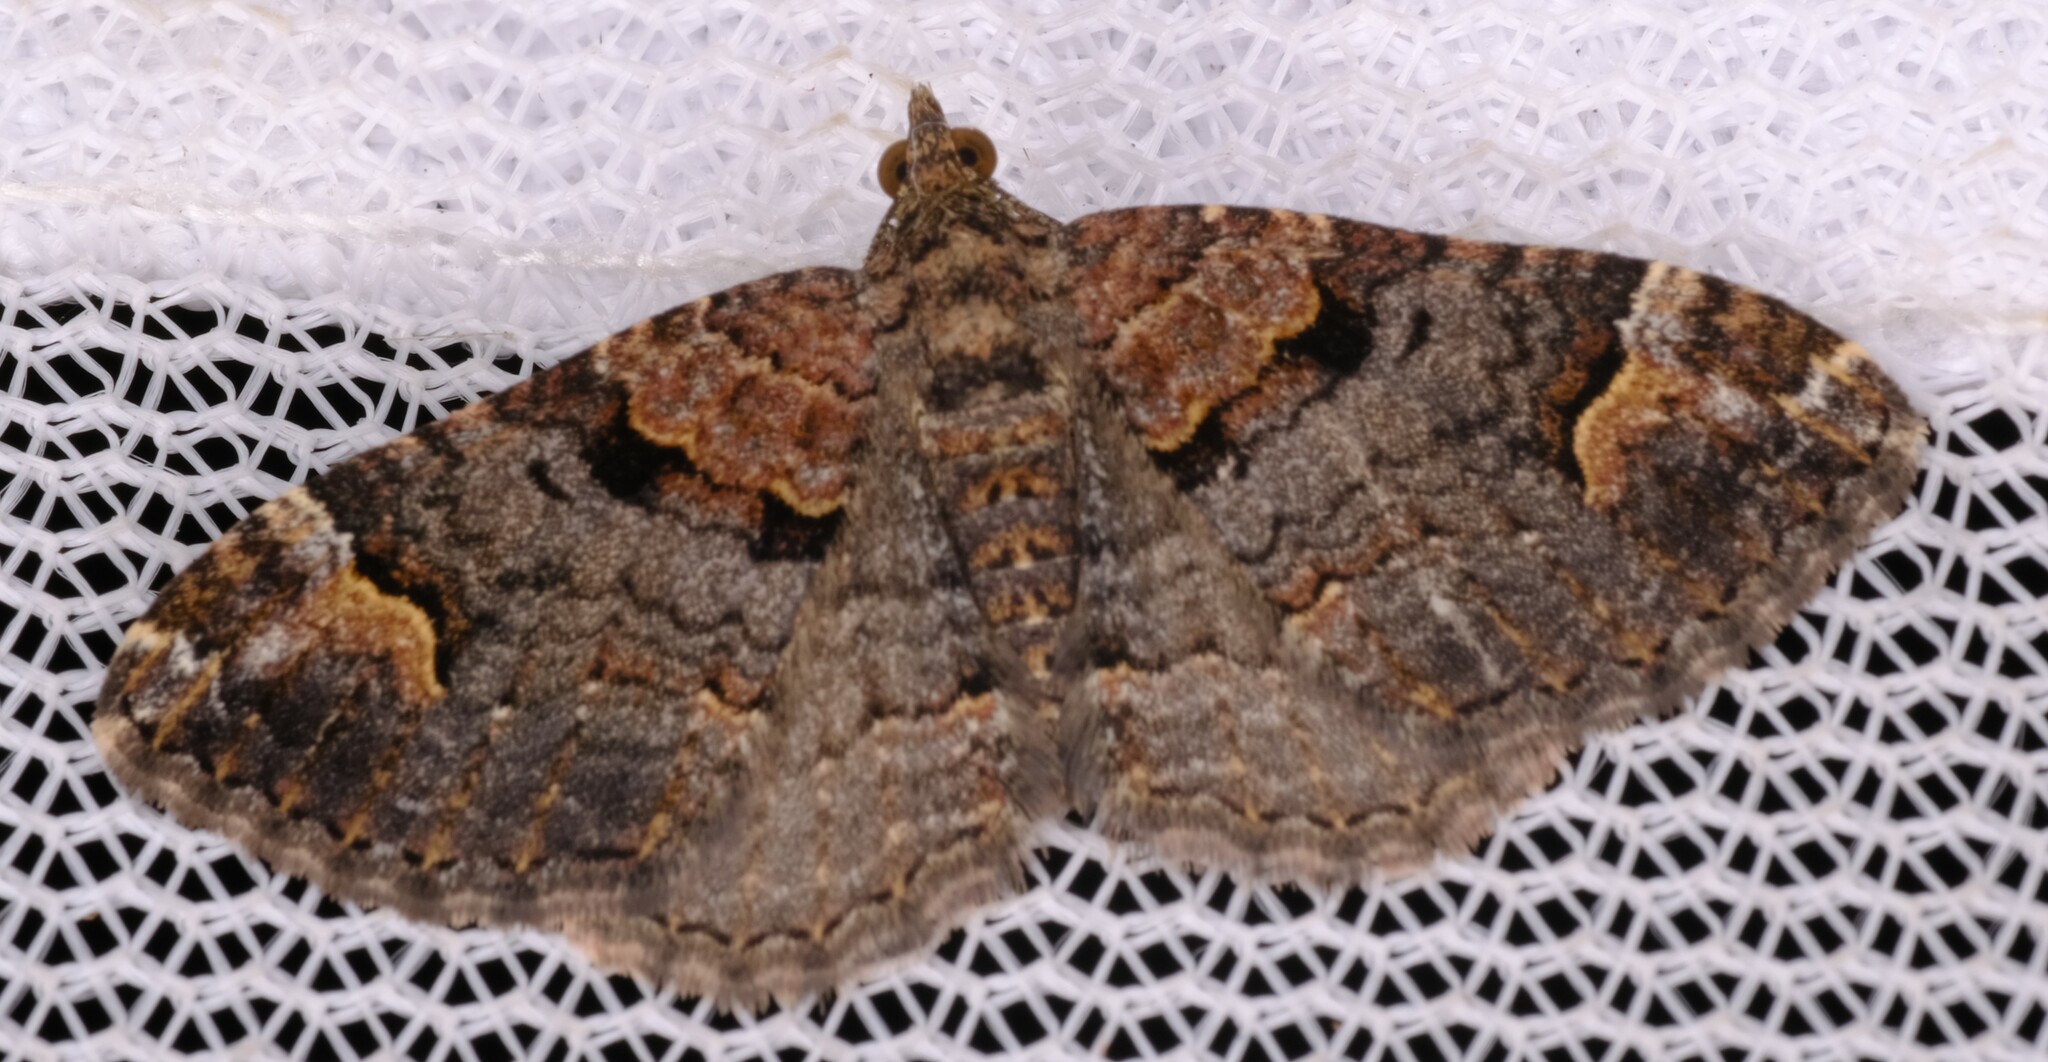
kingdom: Animalia
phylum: Arthropoda
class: Insecta
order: Lepidoptera
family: Geometridae
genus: Epyaxa
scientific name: Epyaxa sodaliata
